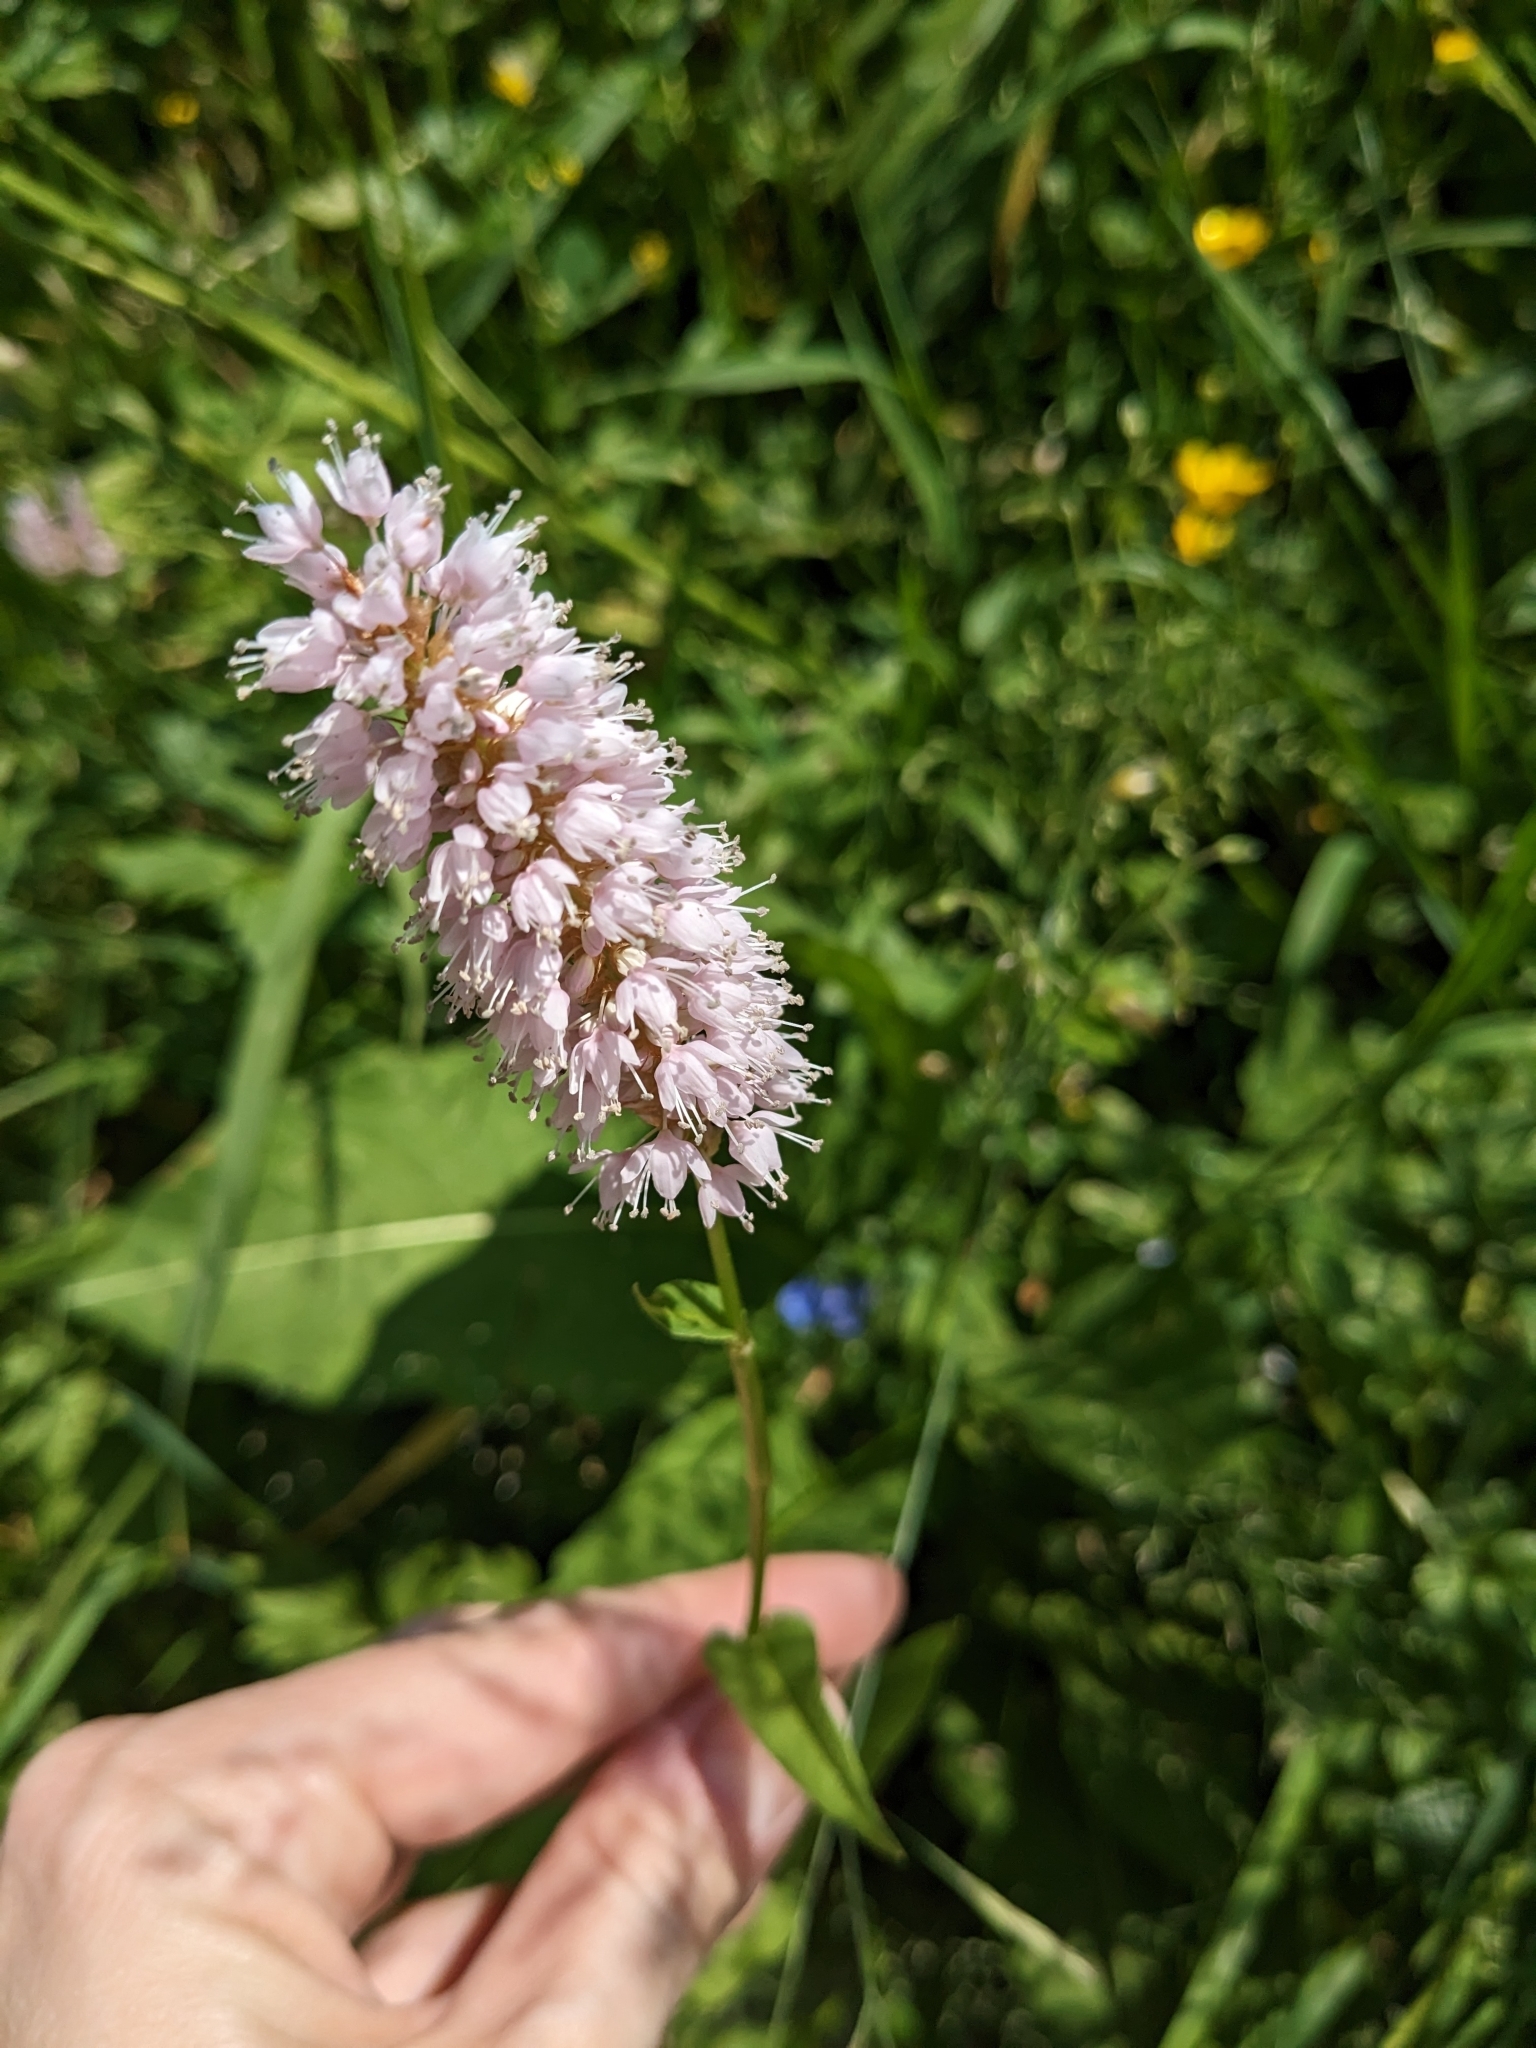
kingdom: Plantae
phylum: Tracheophyta
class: Magnoliopsida
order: Caryophyllales
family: Polygonaceae
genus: Bistorta
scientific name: Bistorta officinalis
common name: Common bistort
